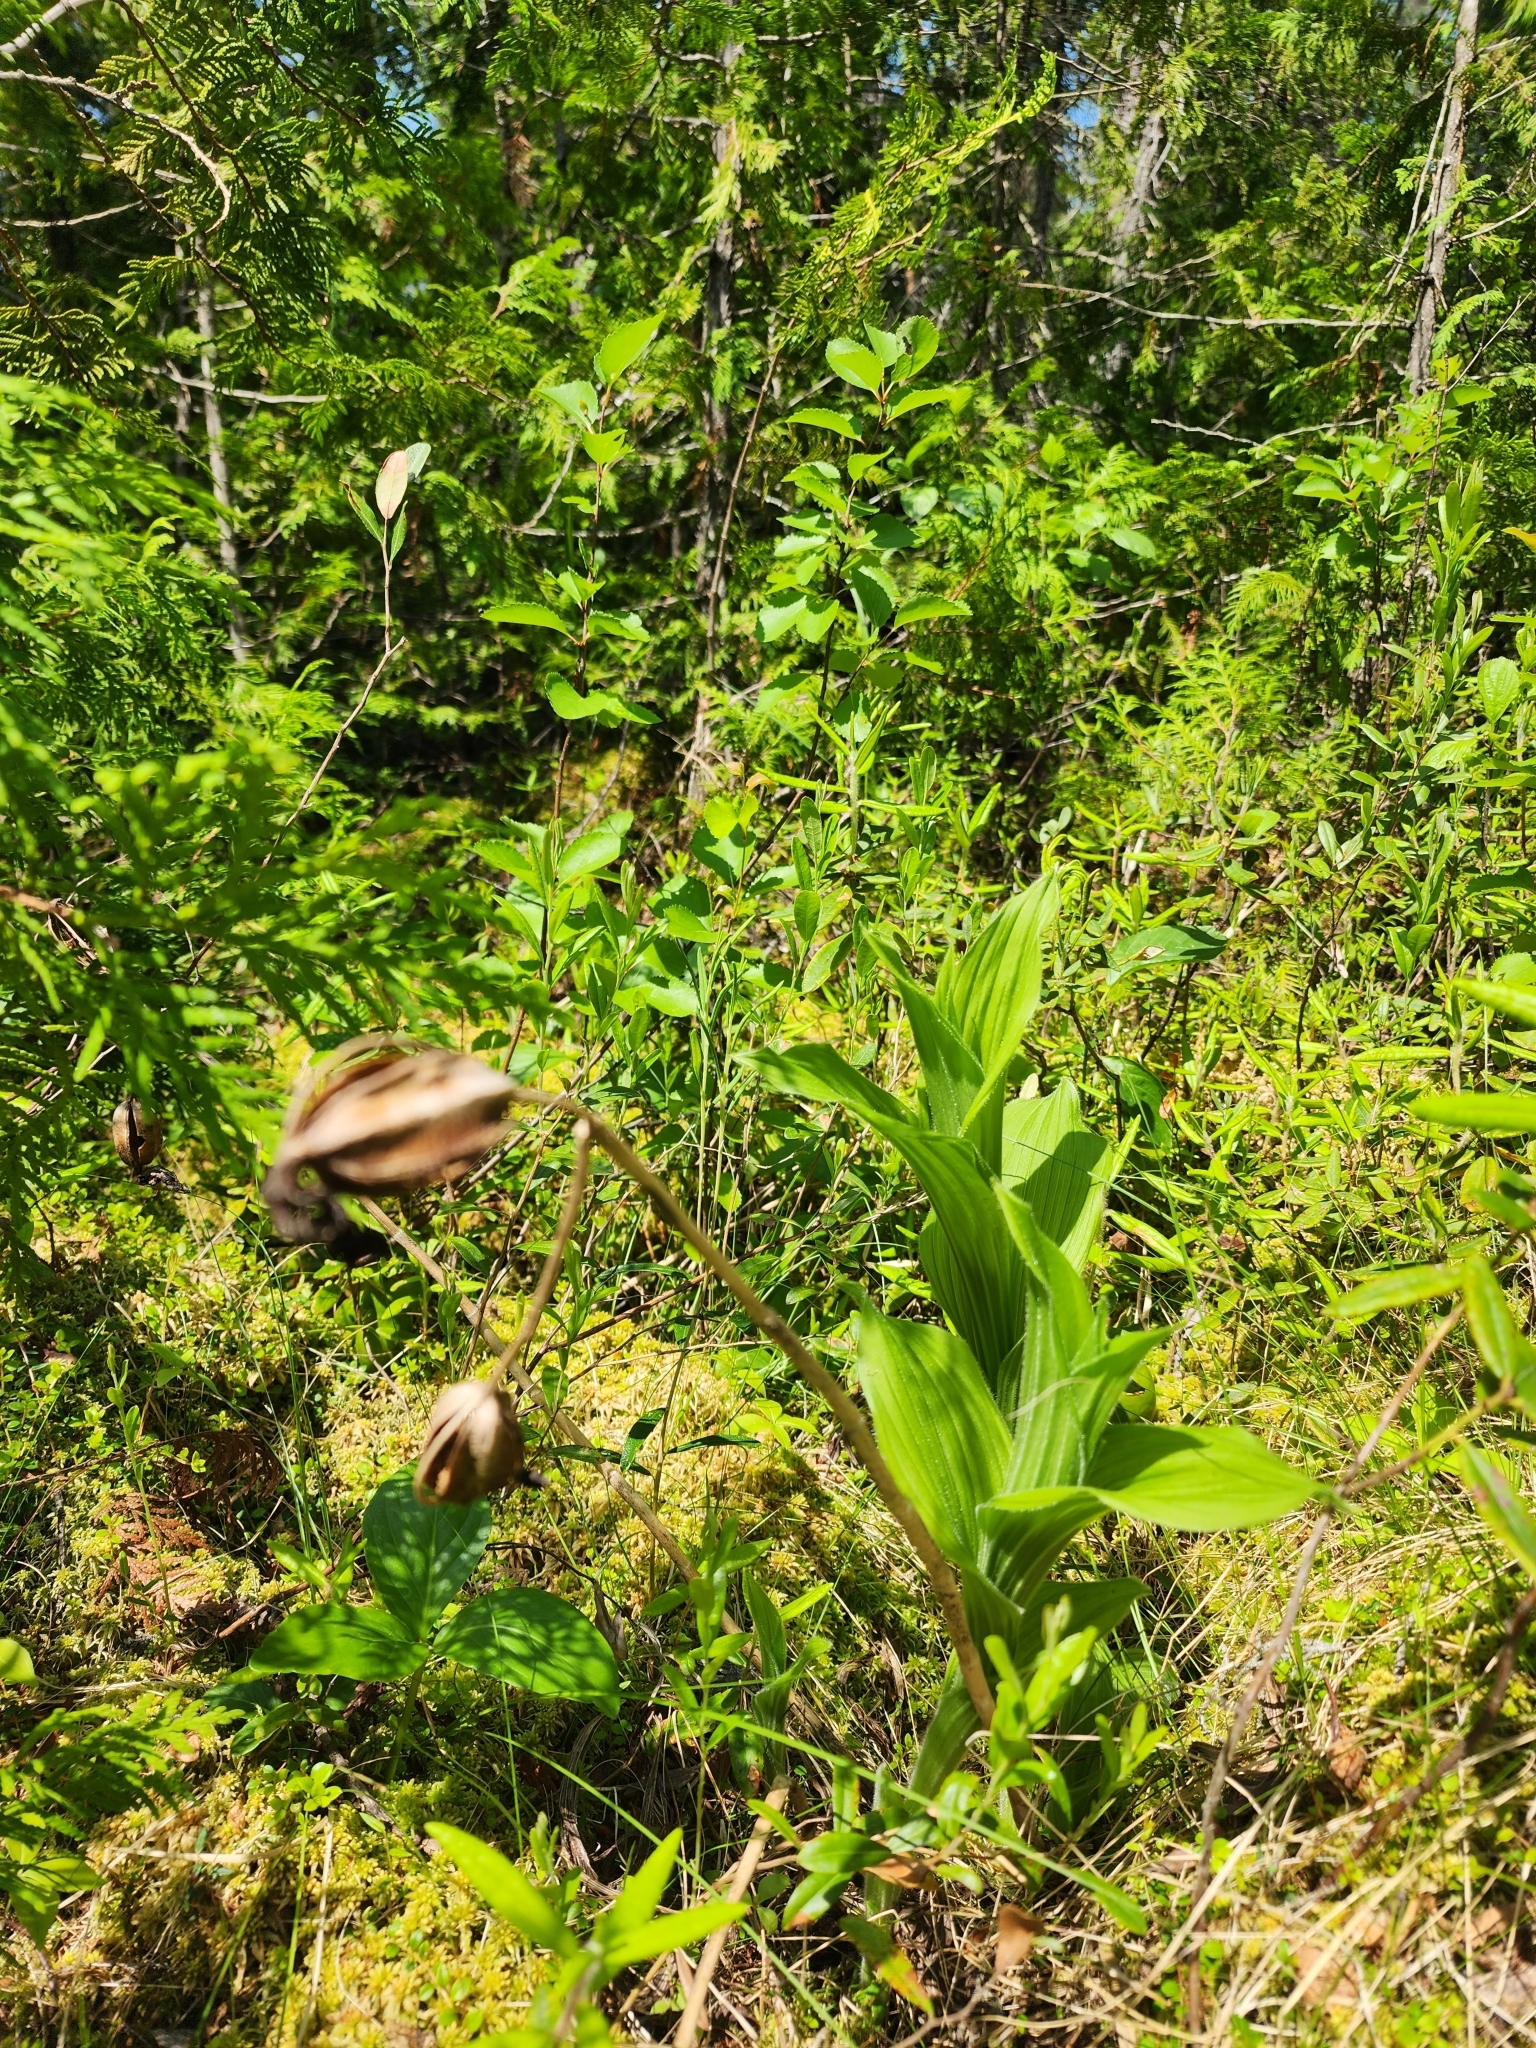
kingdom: Plantae
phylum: Tracheophyta
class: Liliopsida
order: Asparagales
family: Orchidaceae
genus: Cypripedium
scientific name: Cypripedium reginae
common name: Queen lady's-slipper
